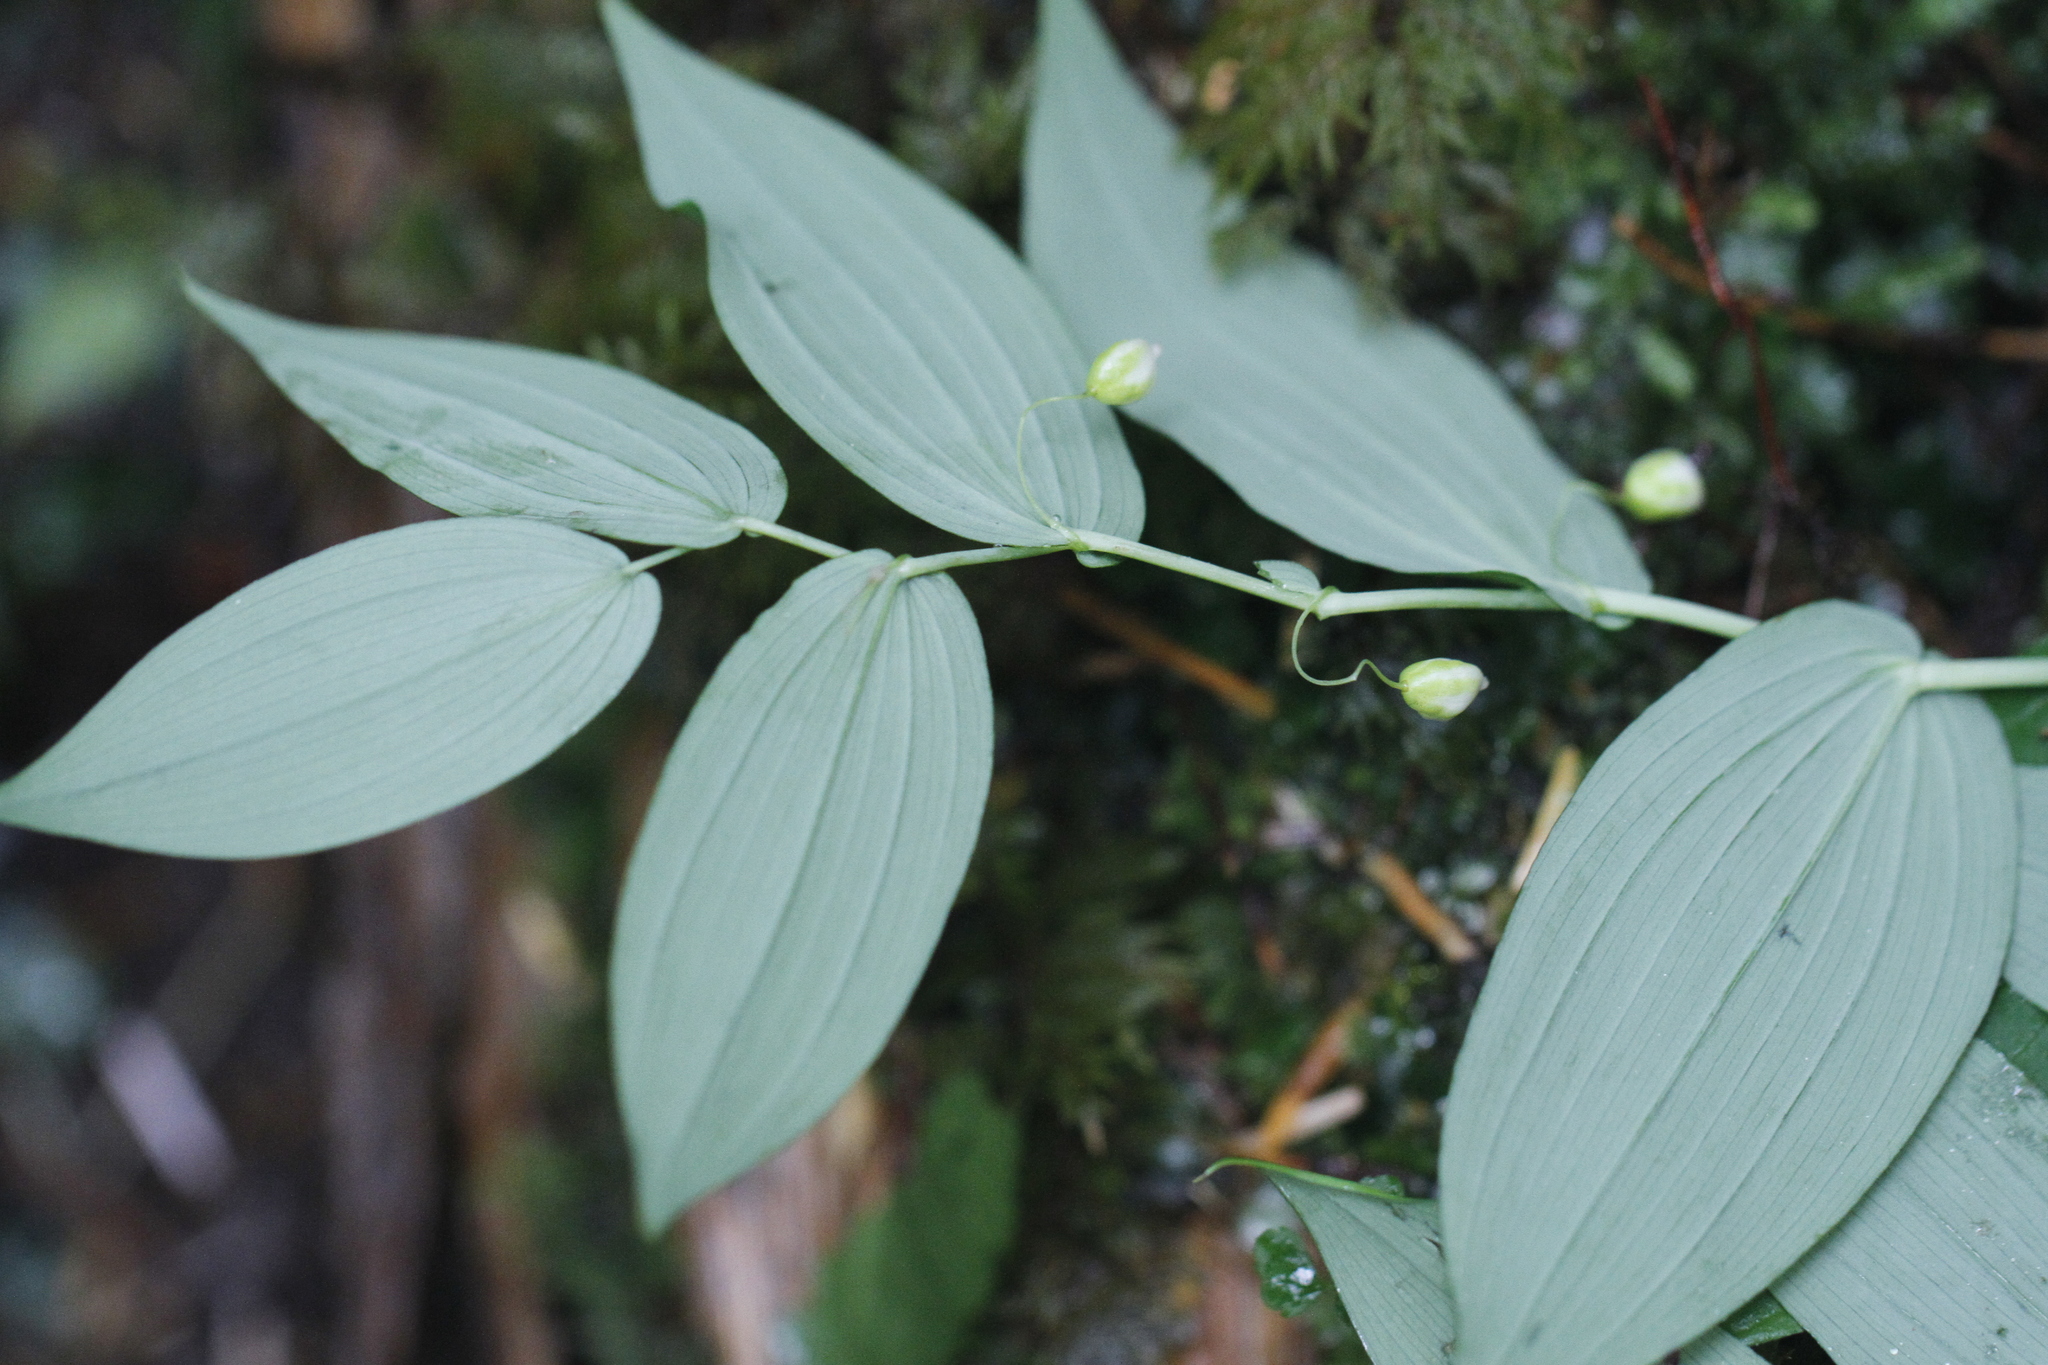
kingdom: Plantae
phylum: Tracheophyta
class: Liliopsida
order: Liliales
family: Liliaceae
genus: Streptopus
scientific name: Streptopus amplexifolius
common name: Clasp twisted stalk
